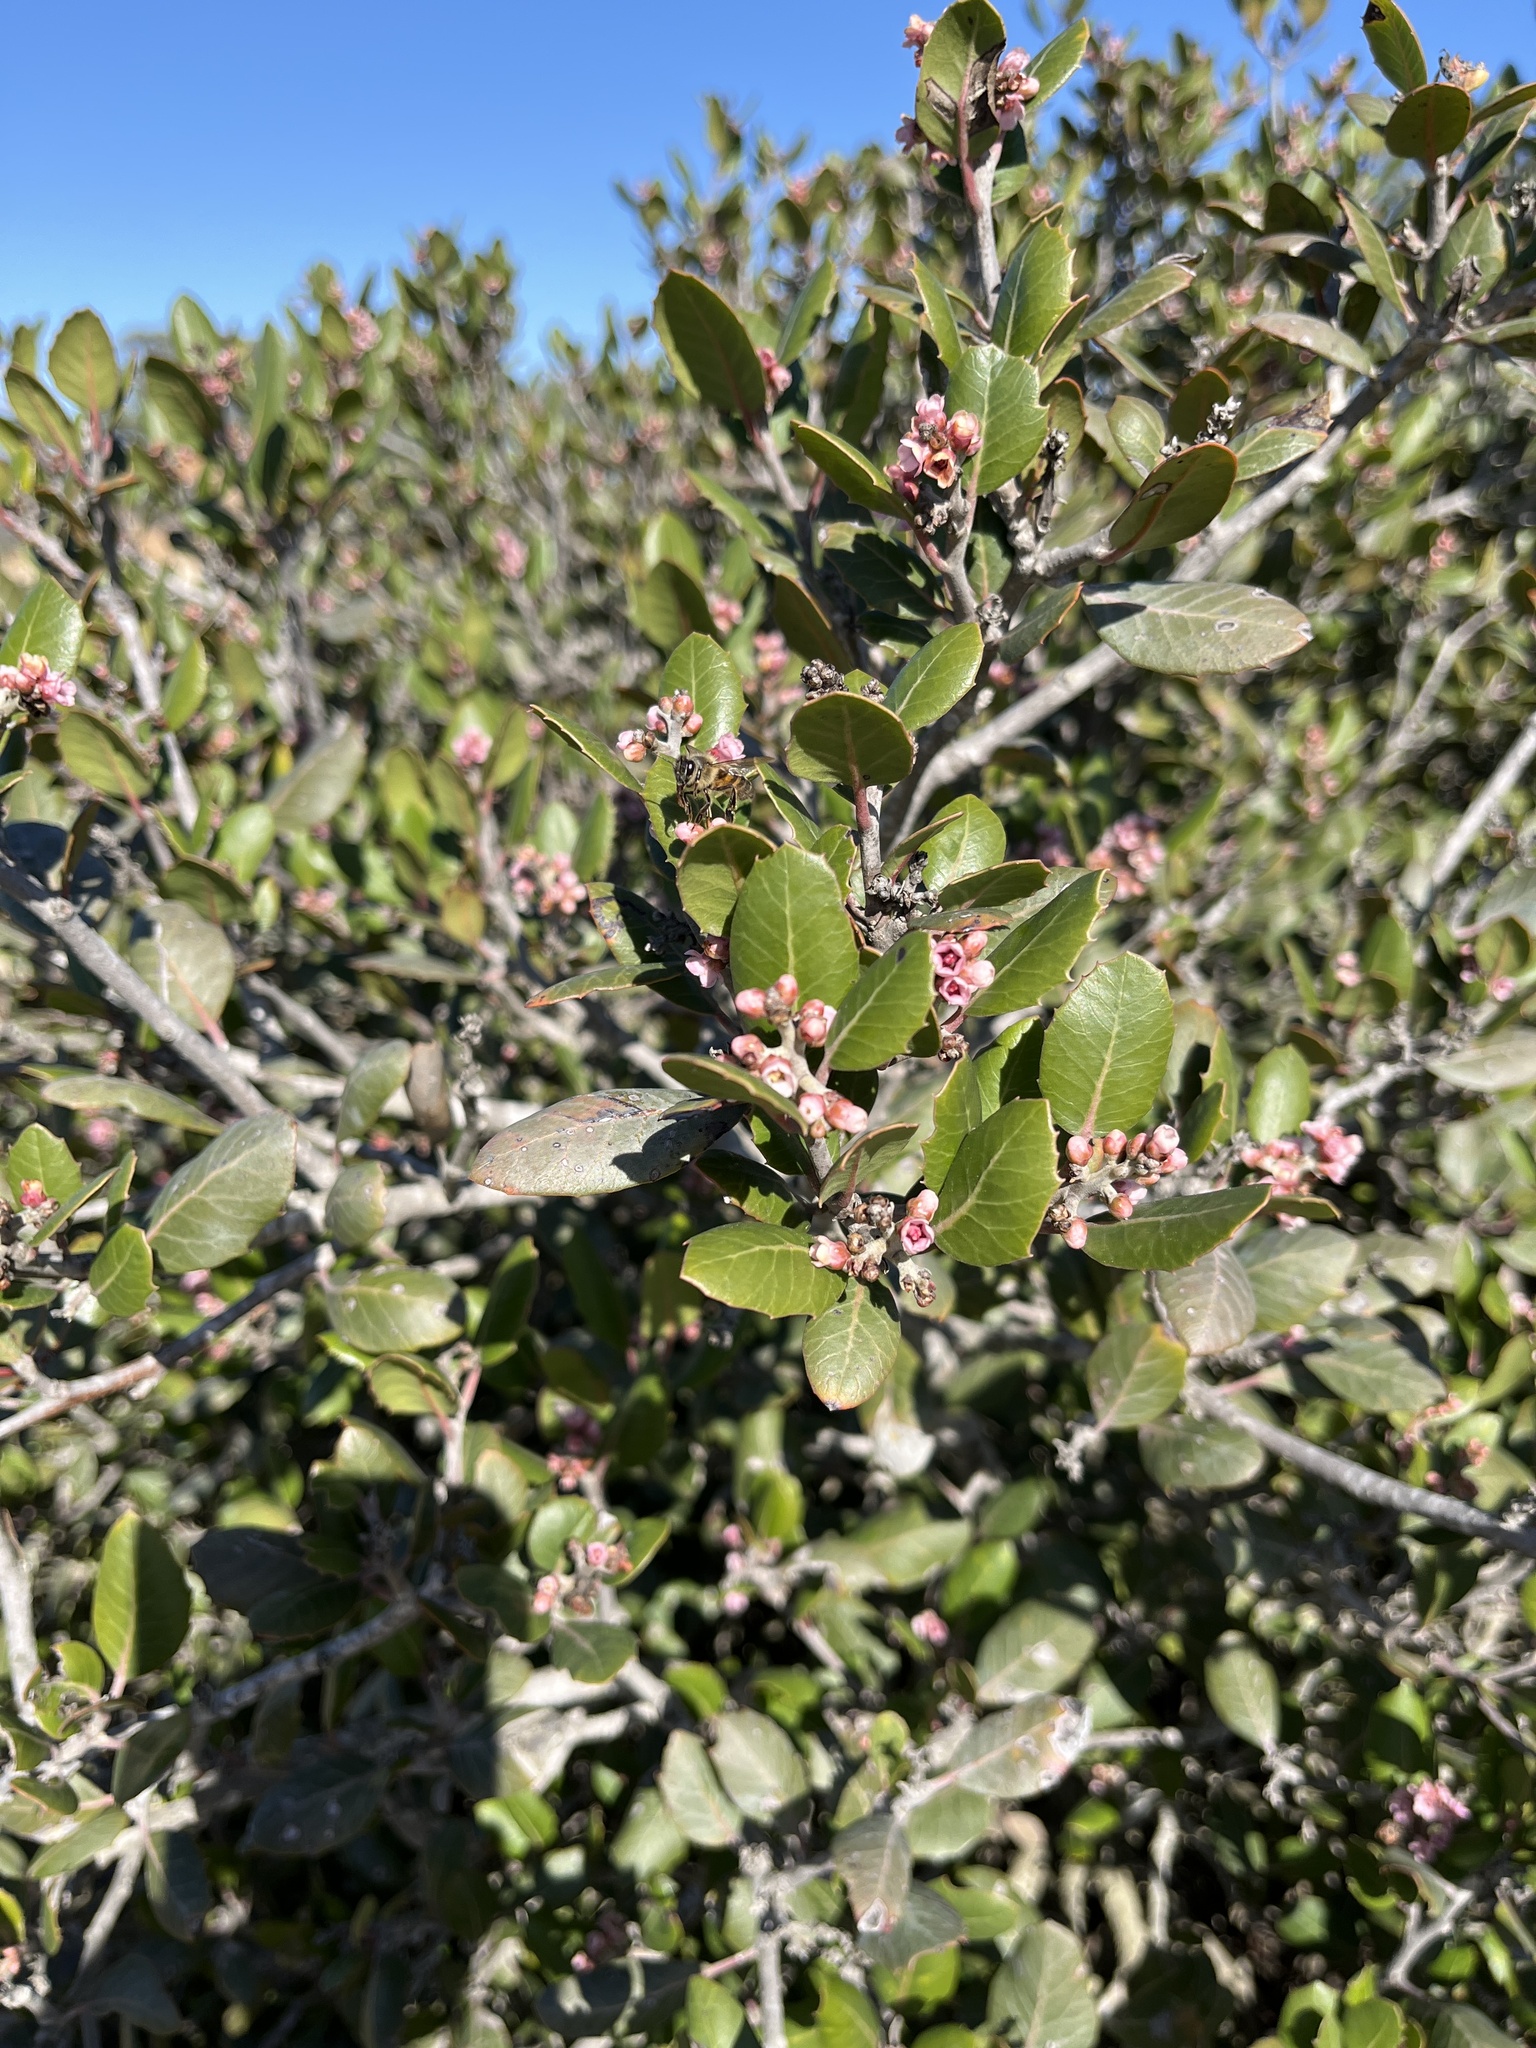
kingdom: Plantae
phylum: Tracheophyta
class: Magnoliopsida
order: Sapindales
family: Anacardiaceae
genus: Rhus
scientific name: Rhus integrifolia
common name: Lemonade sumac
